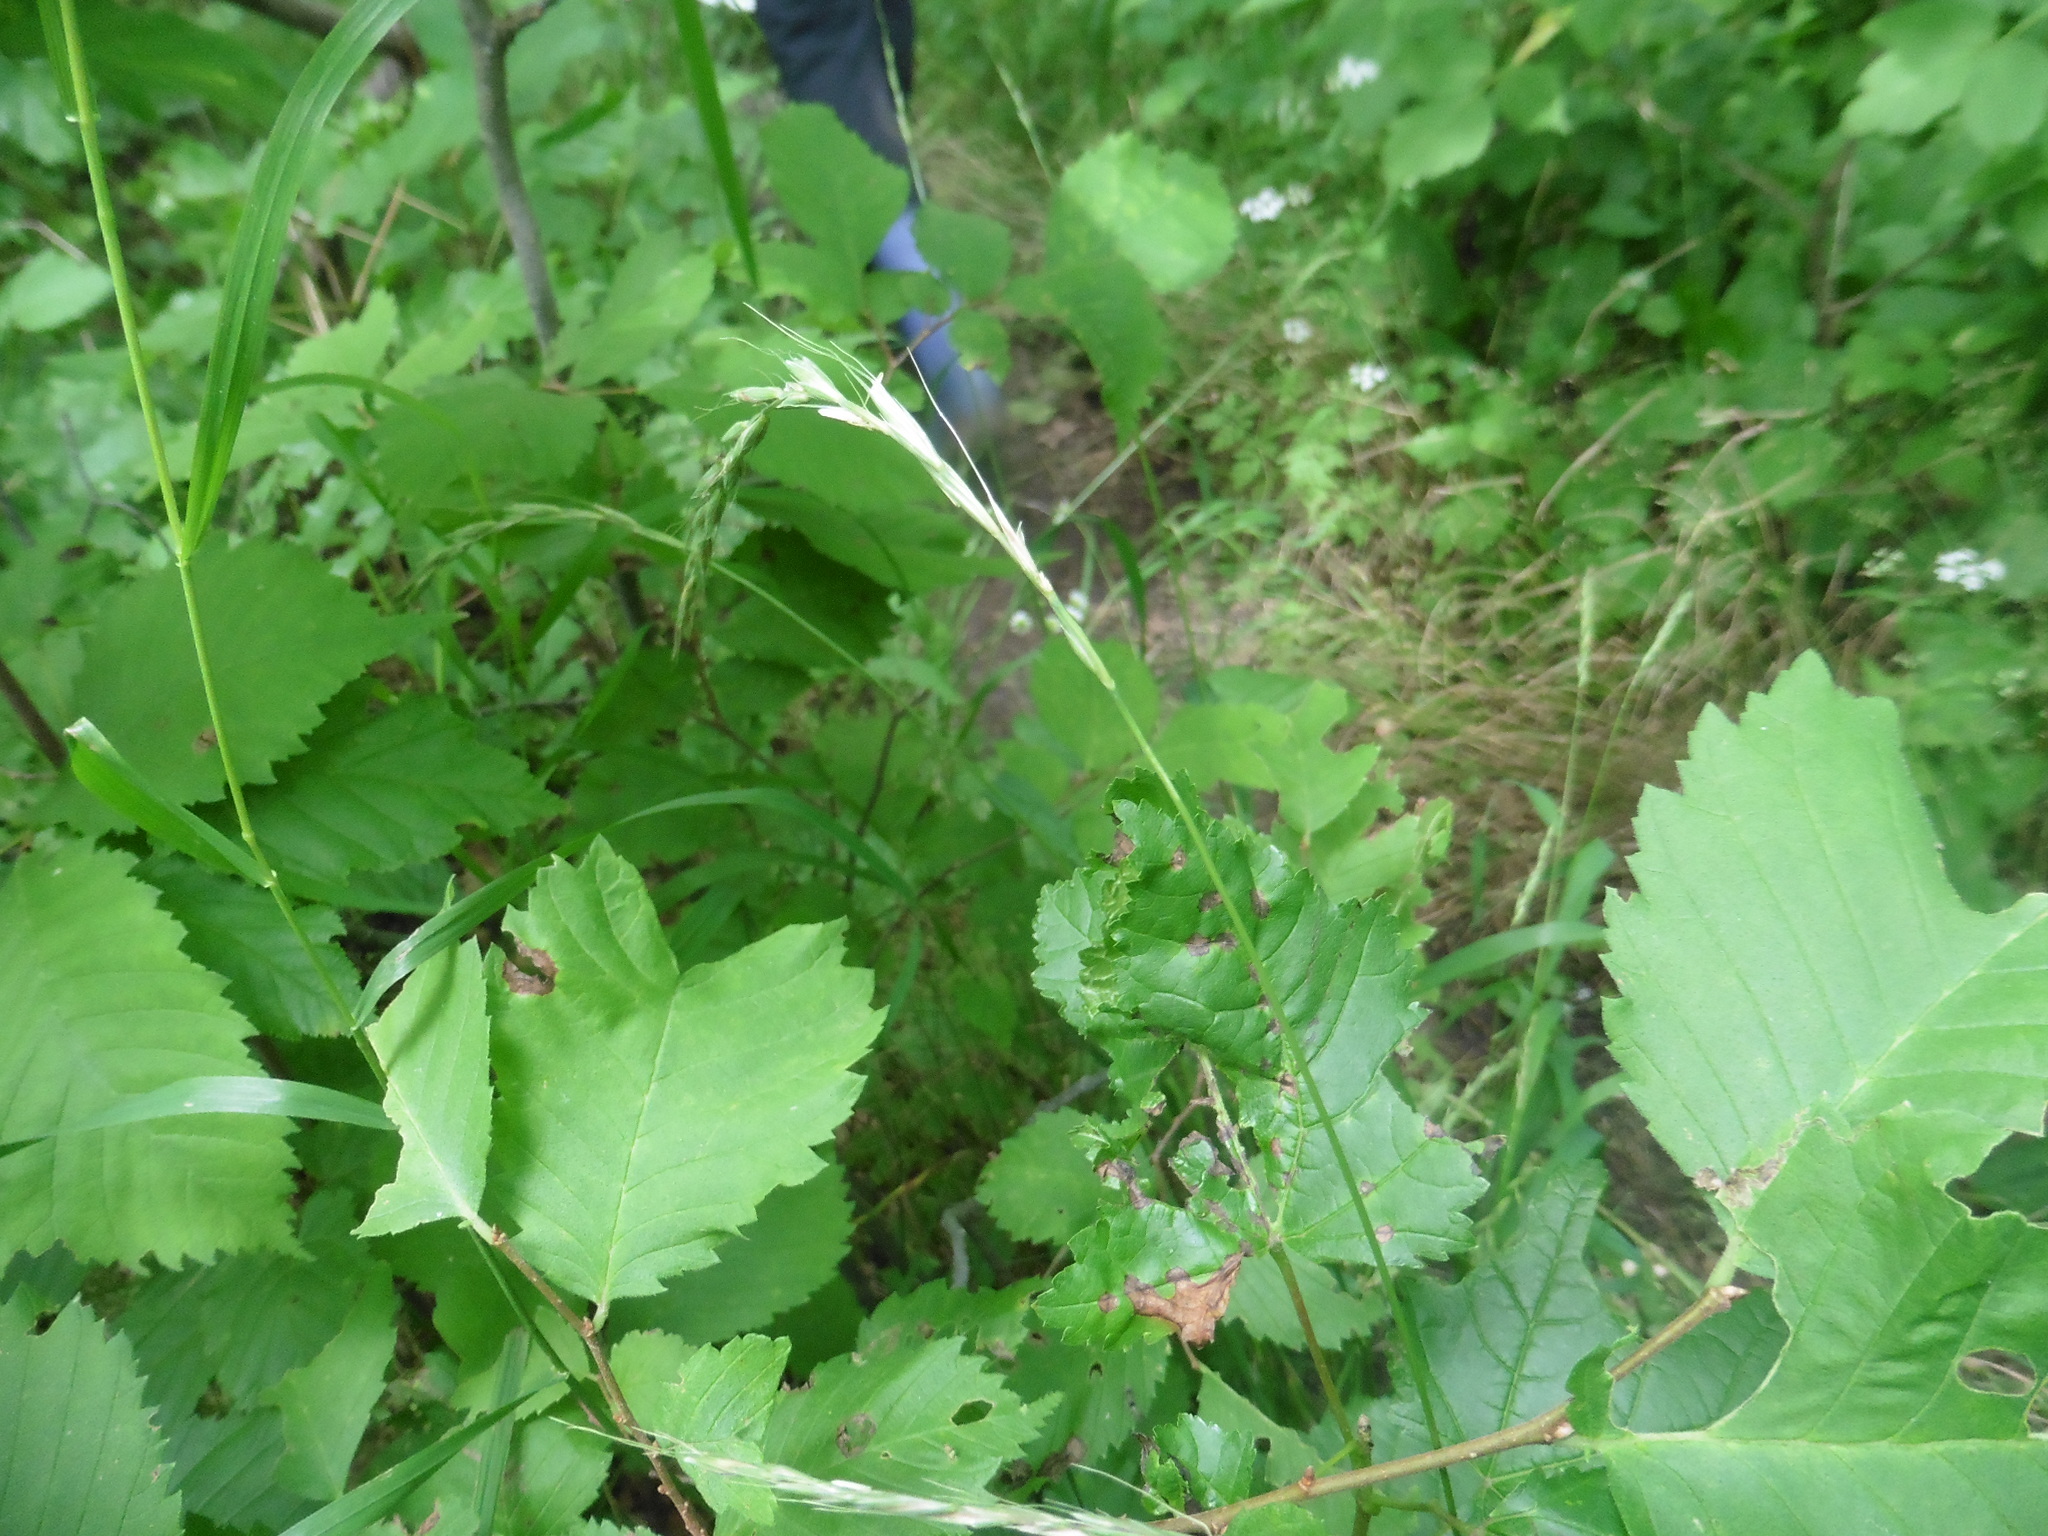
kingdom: Plantae
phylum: Tracheophyta
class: Liliopsida
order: Poales
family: Poaceae
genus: Elymus
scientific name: Elymus caninus
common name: Bearded couch
